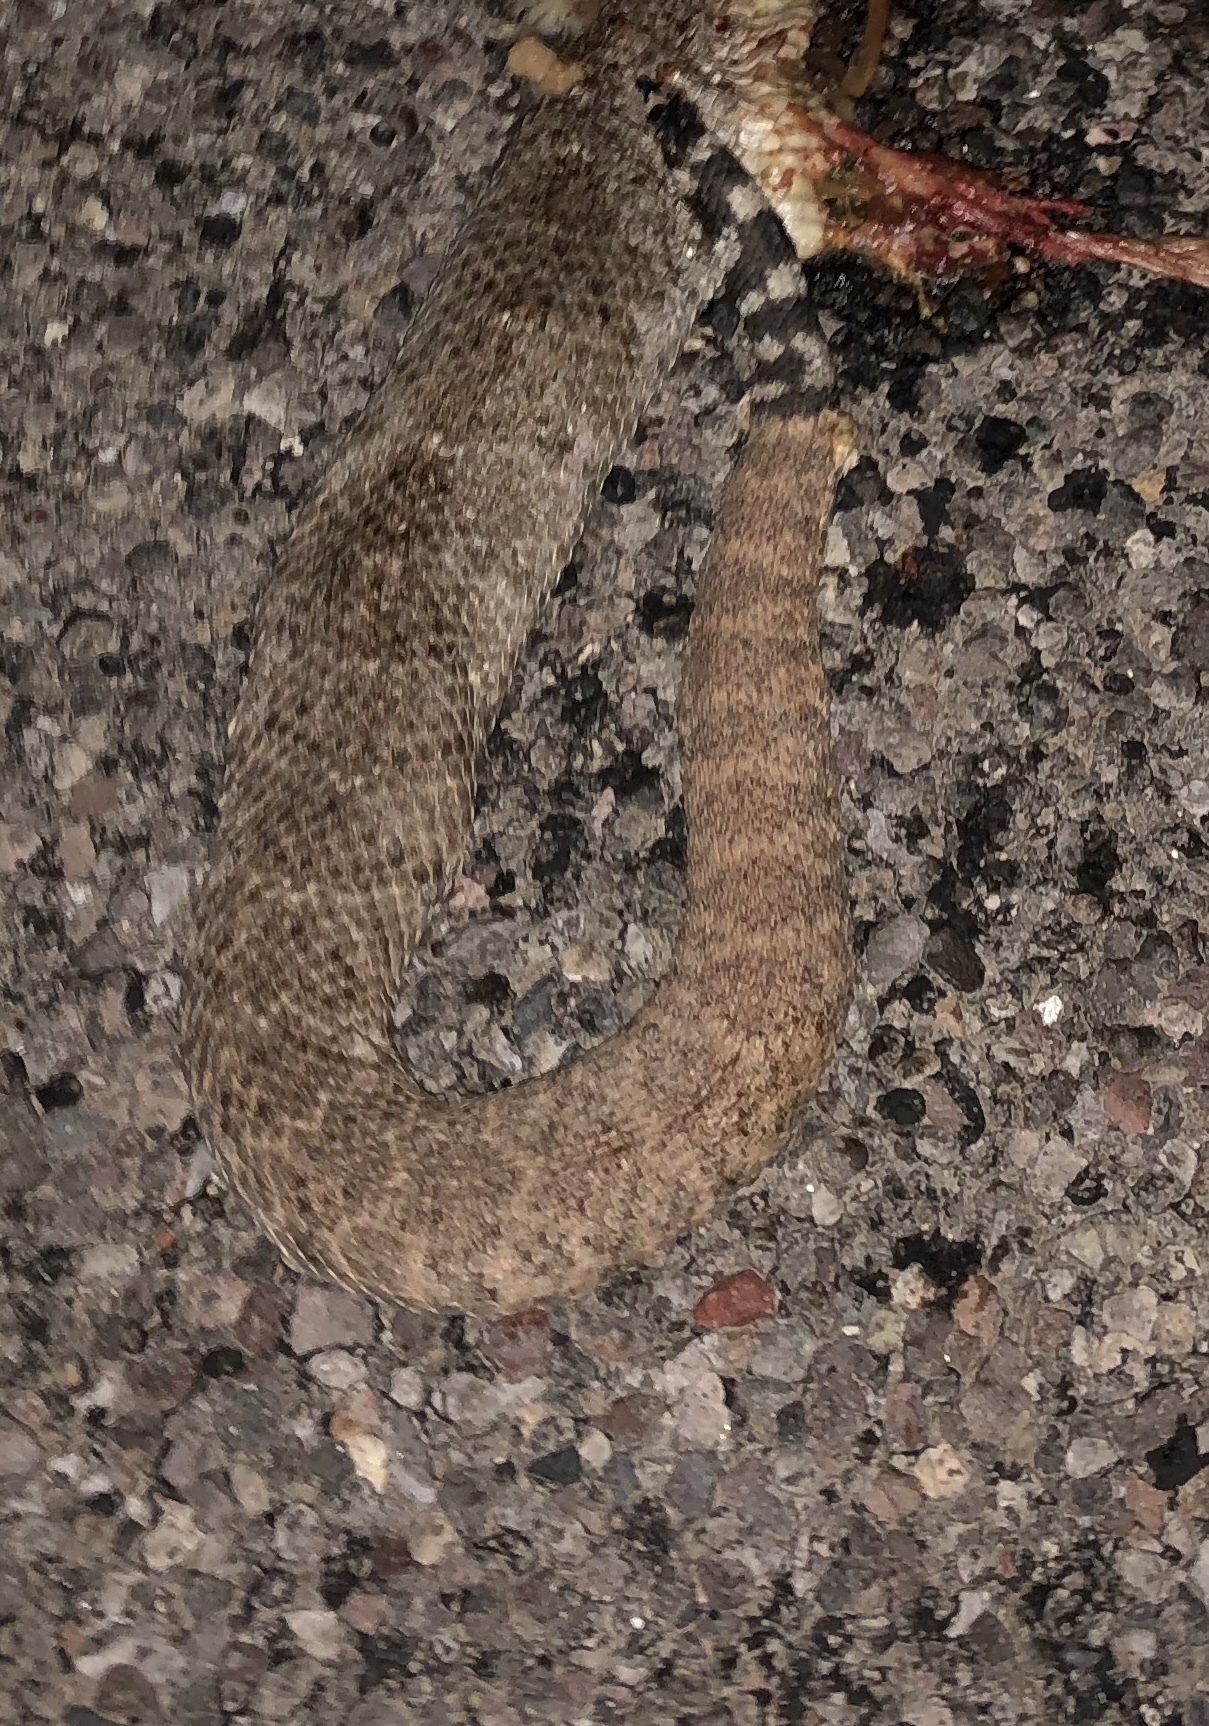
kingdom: Animalia
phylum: Chordata
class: Squamata
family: Viperidae
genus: Crotalus
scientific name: Crotalus atrox
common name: Western diamond-backed rattlesnake
